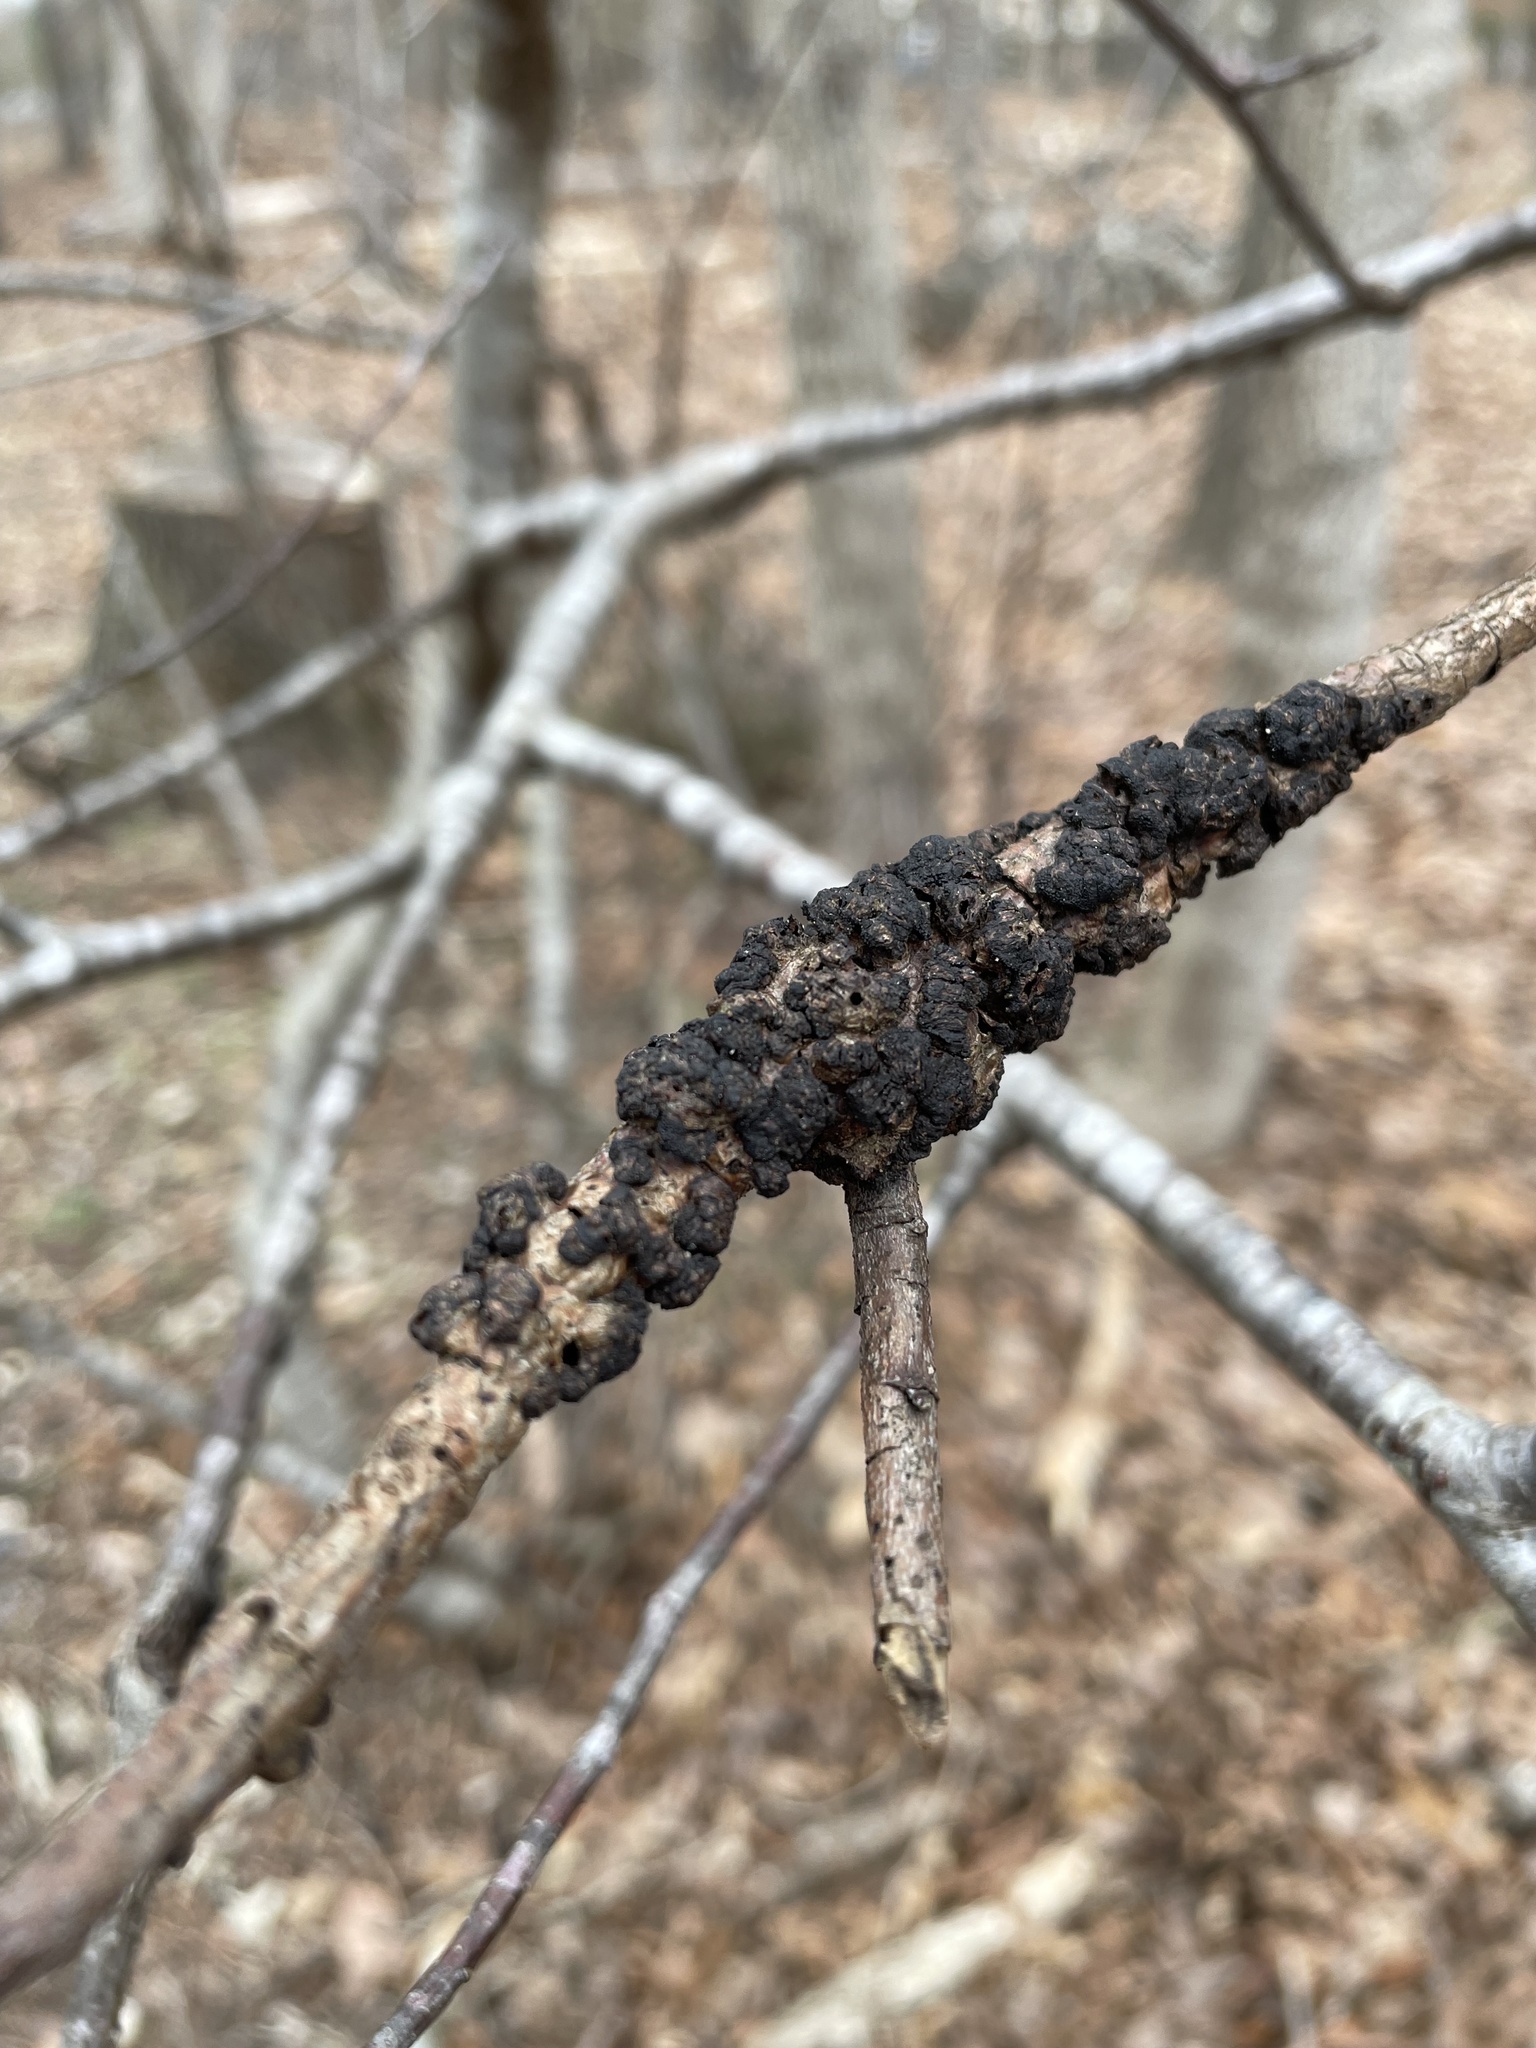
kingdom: Fungi
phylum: Ascomycota
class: Dothideomycetes
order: Venturiales
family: Venturiaceae
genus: Apiosporina
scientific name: Apiosporina morbosa
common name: Black knot
